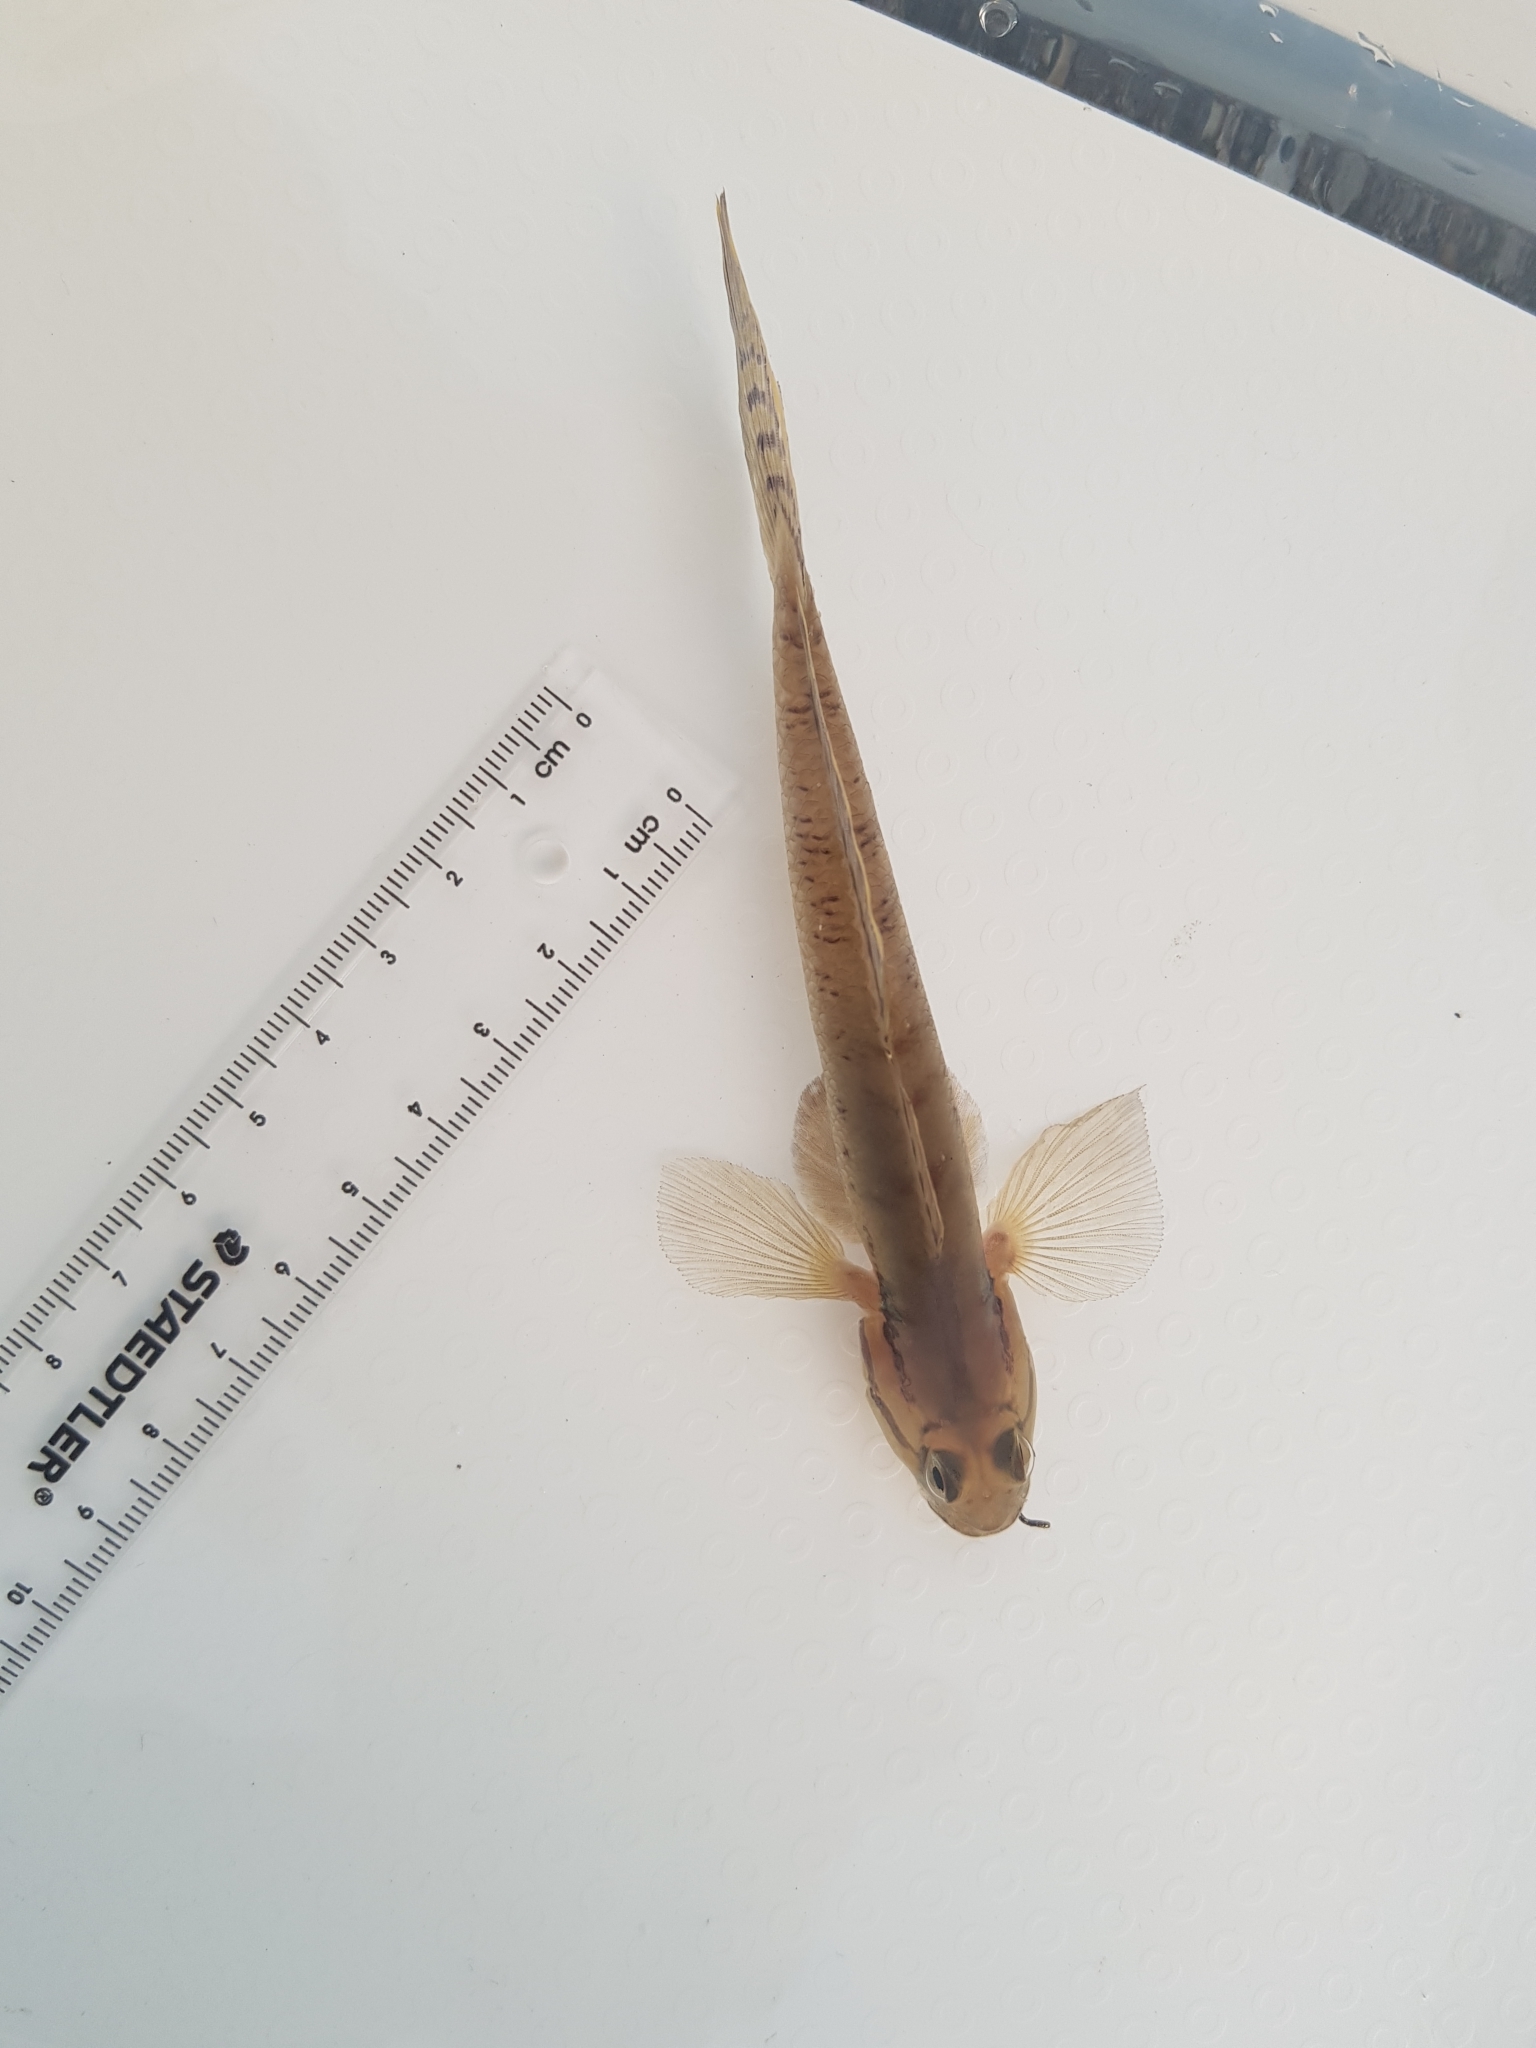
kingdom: Animalia
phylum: Chordata
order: Perciformes
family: Gobiidae
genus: Arenigobius
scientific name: Arenigobius bifrenatus
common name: Bridled goby
